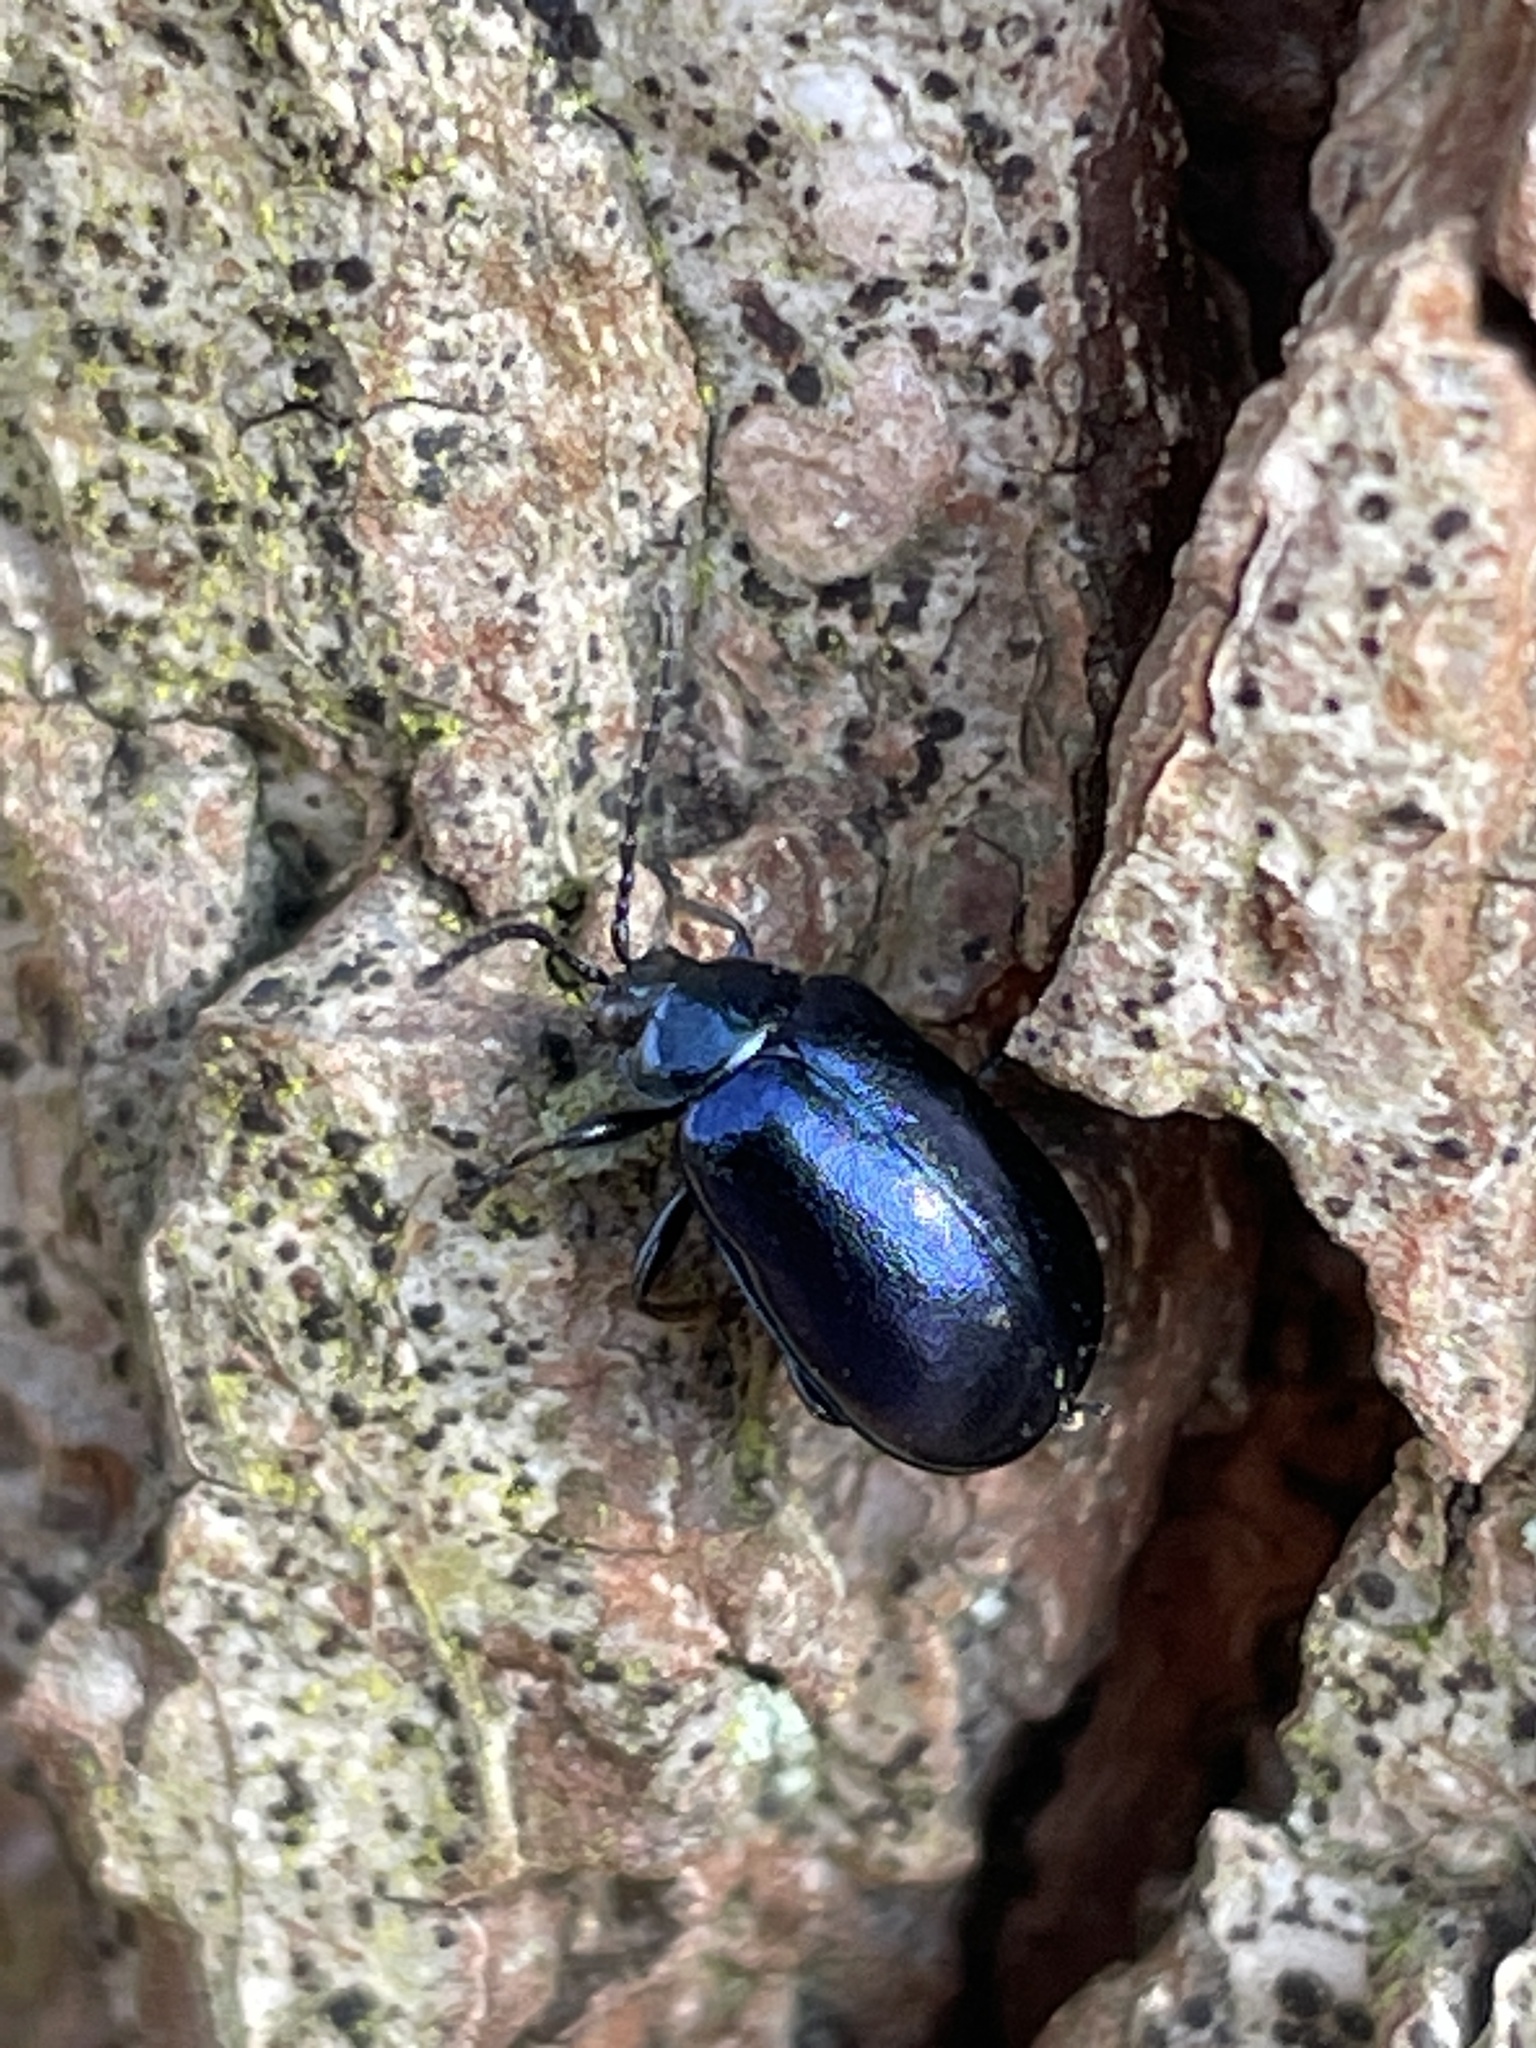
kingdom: Animalia
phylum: Arthropoda
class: Insecta
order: Coleoptera
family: Chrysomelidae
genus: Agelastica
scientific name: Agelastica alni
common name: Alder leaf beetle
